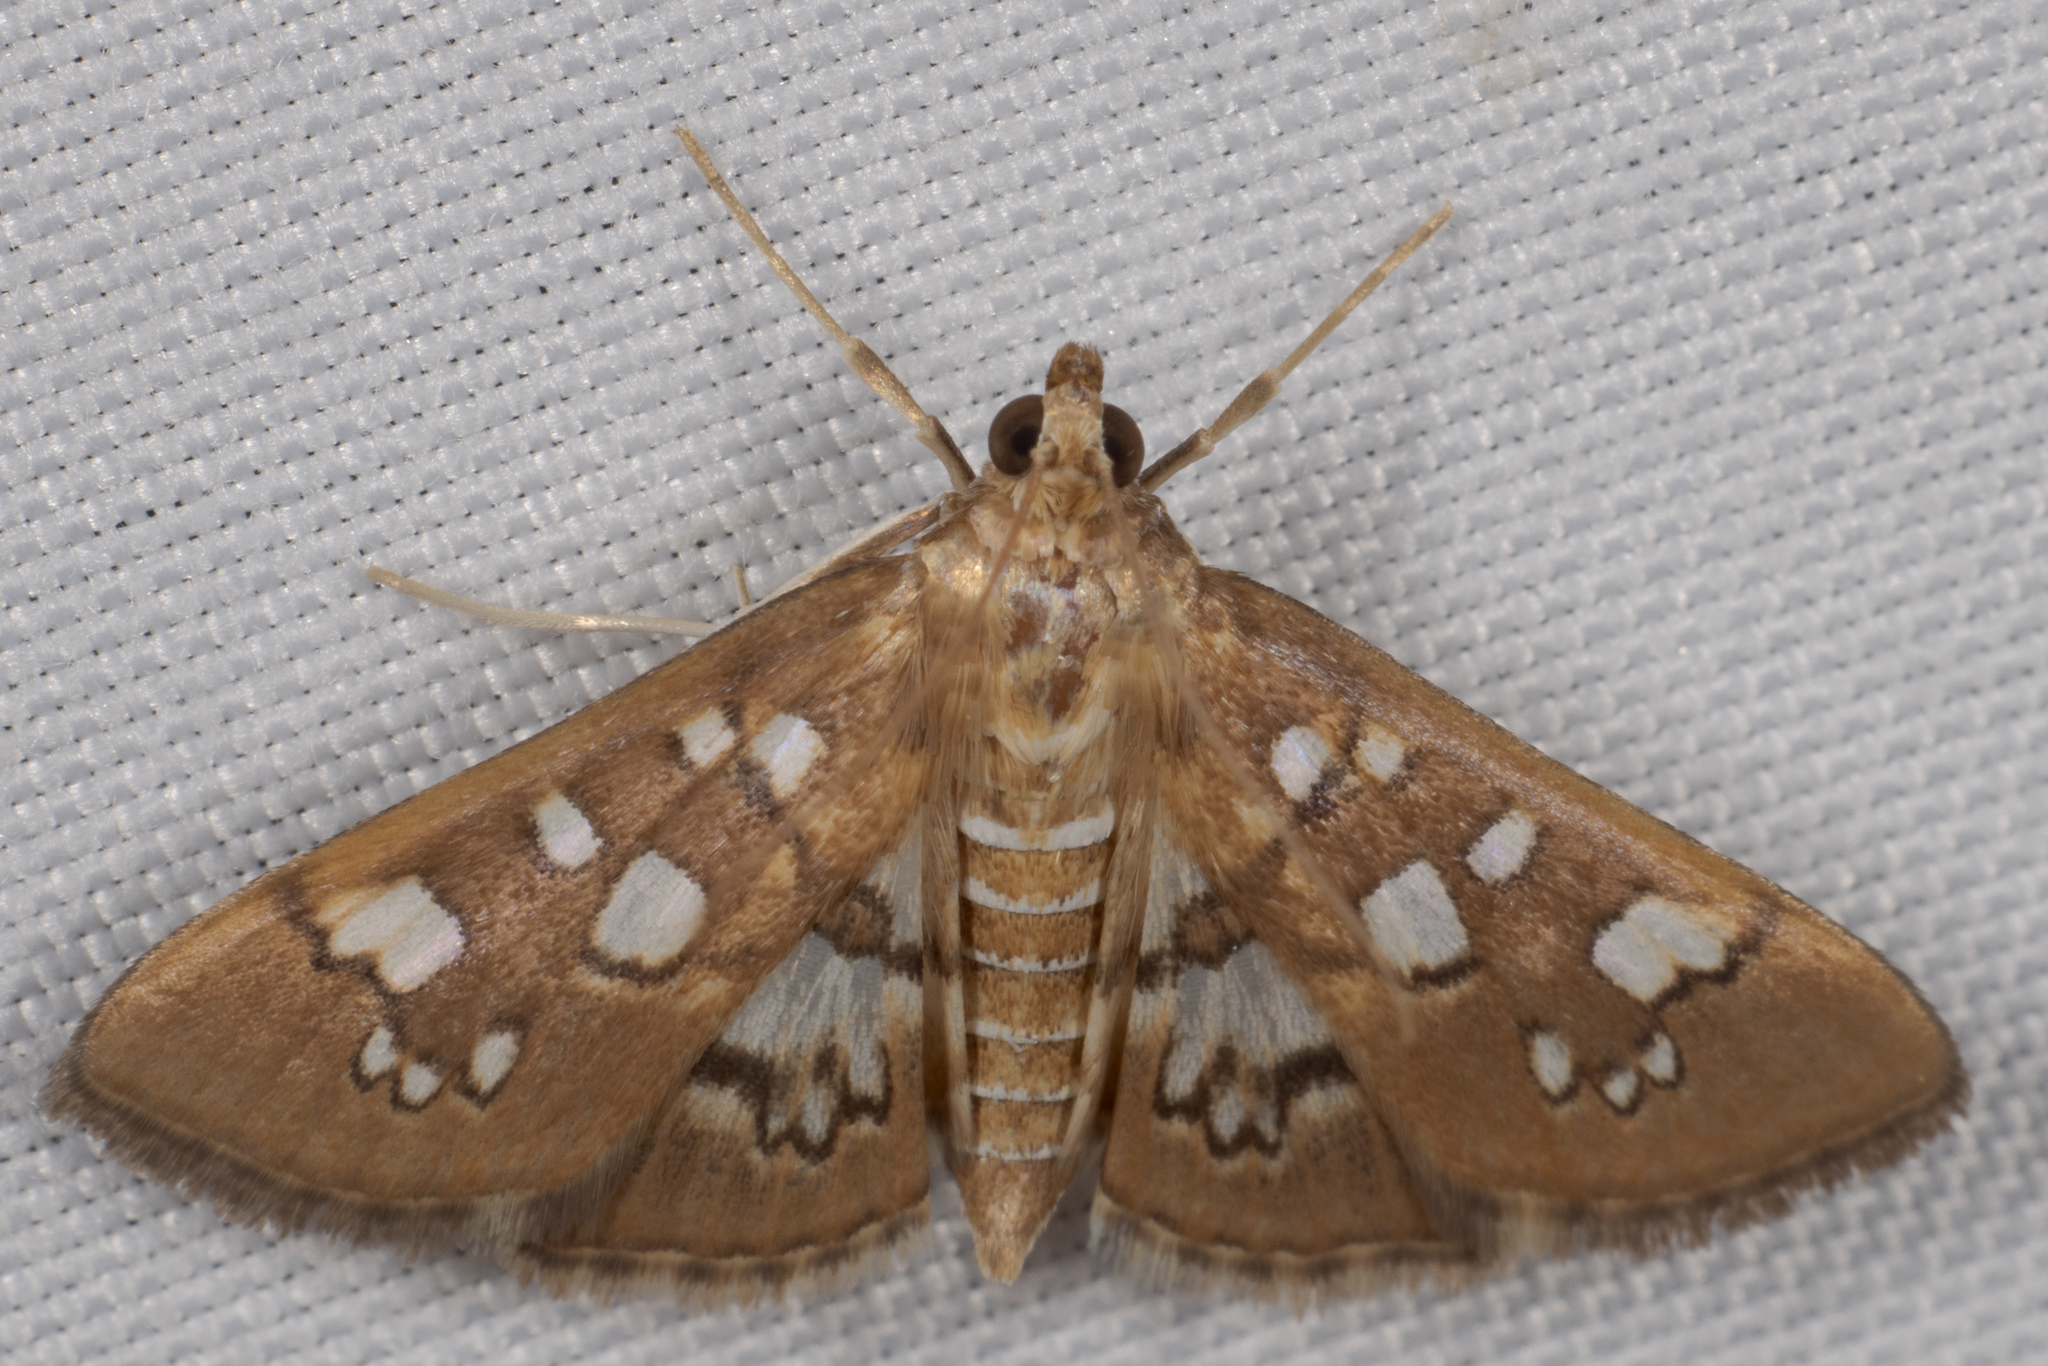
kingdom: Animalia
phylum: Arthropoda
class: Insecta
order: Lepidoptera
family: Crambidae
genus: Samea
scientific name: Samea baccatalis
